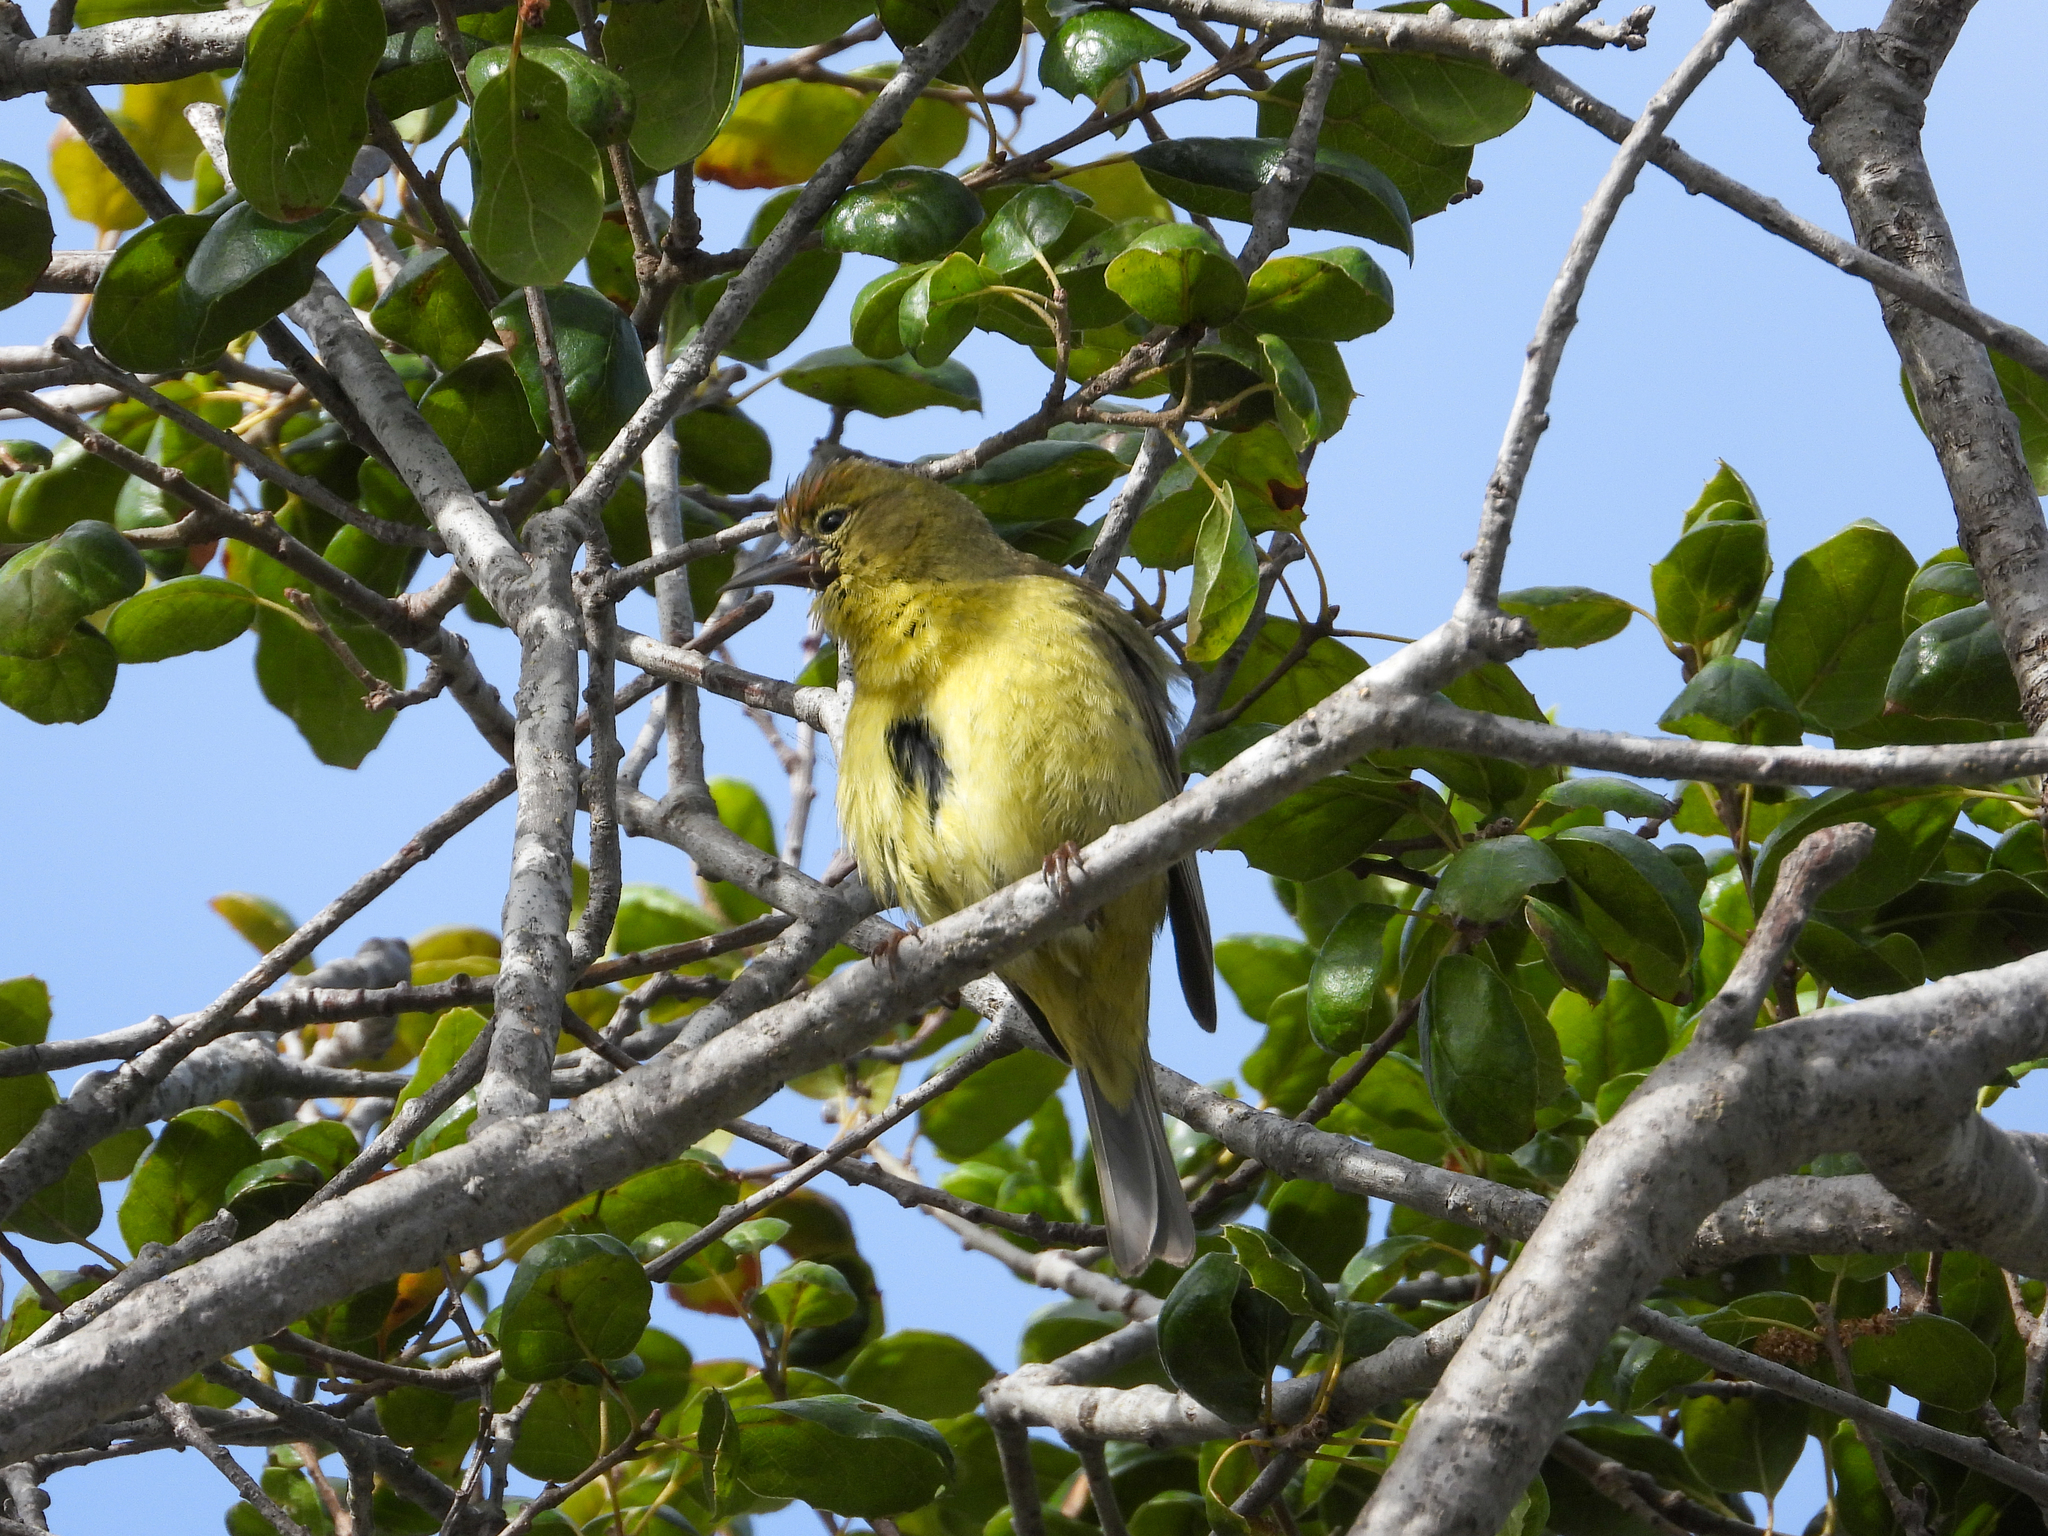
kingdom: Animalia
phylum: Chordata
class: Aves
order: Passeriformes
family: Parulidae
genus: Leiothlypis
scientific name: Leiothlypis celata
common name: Orange-crowned warbler
